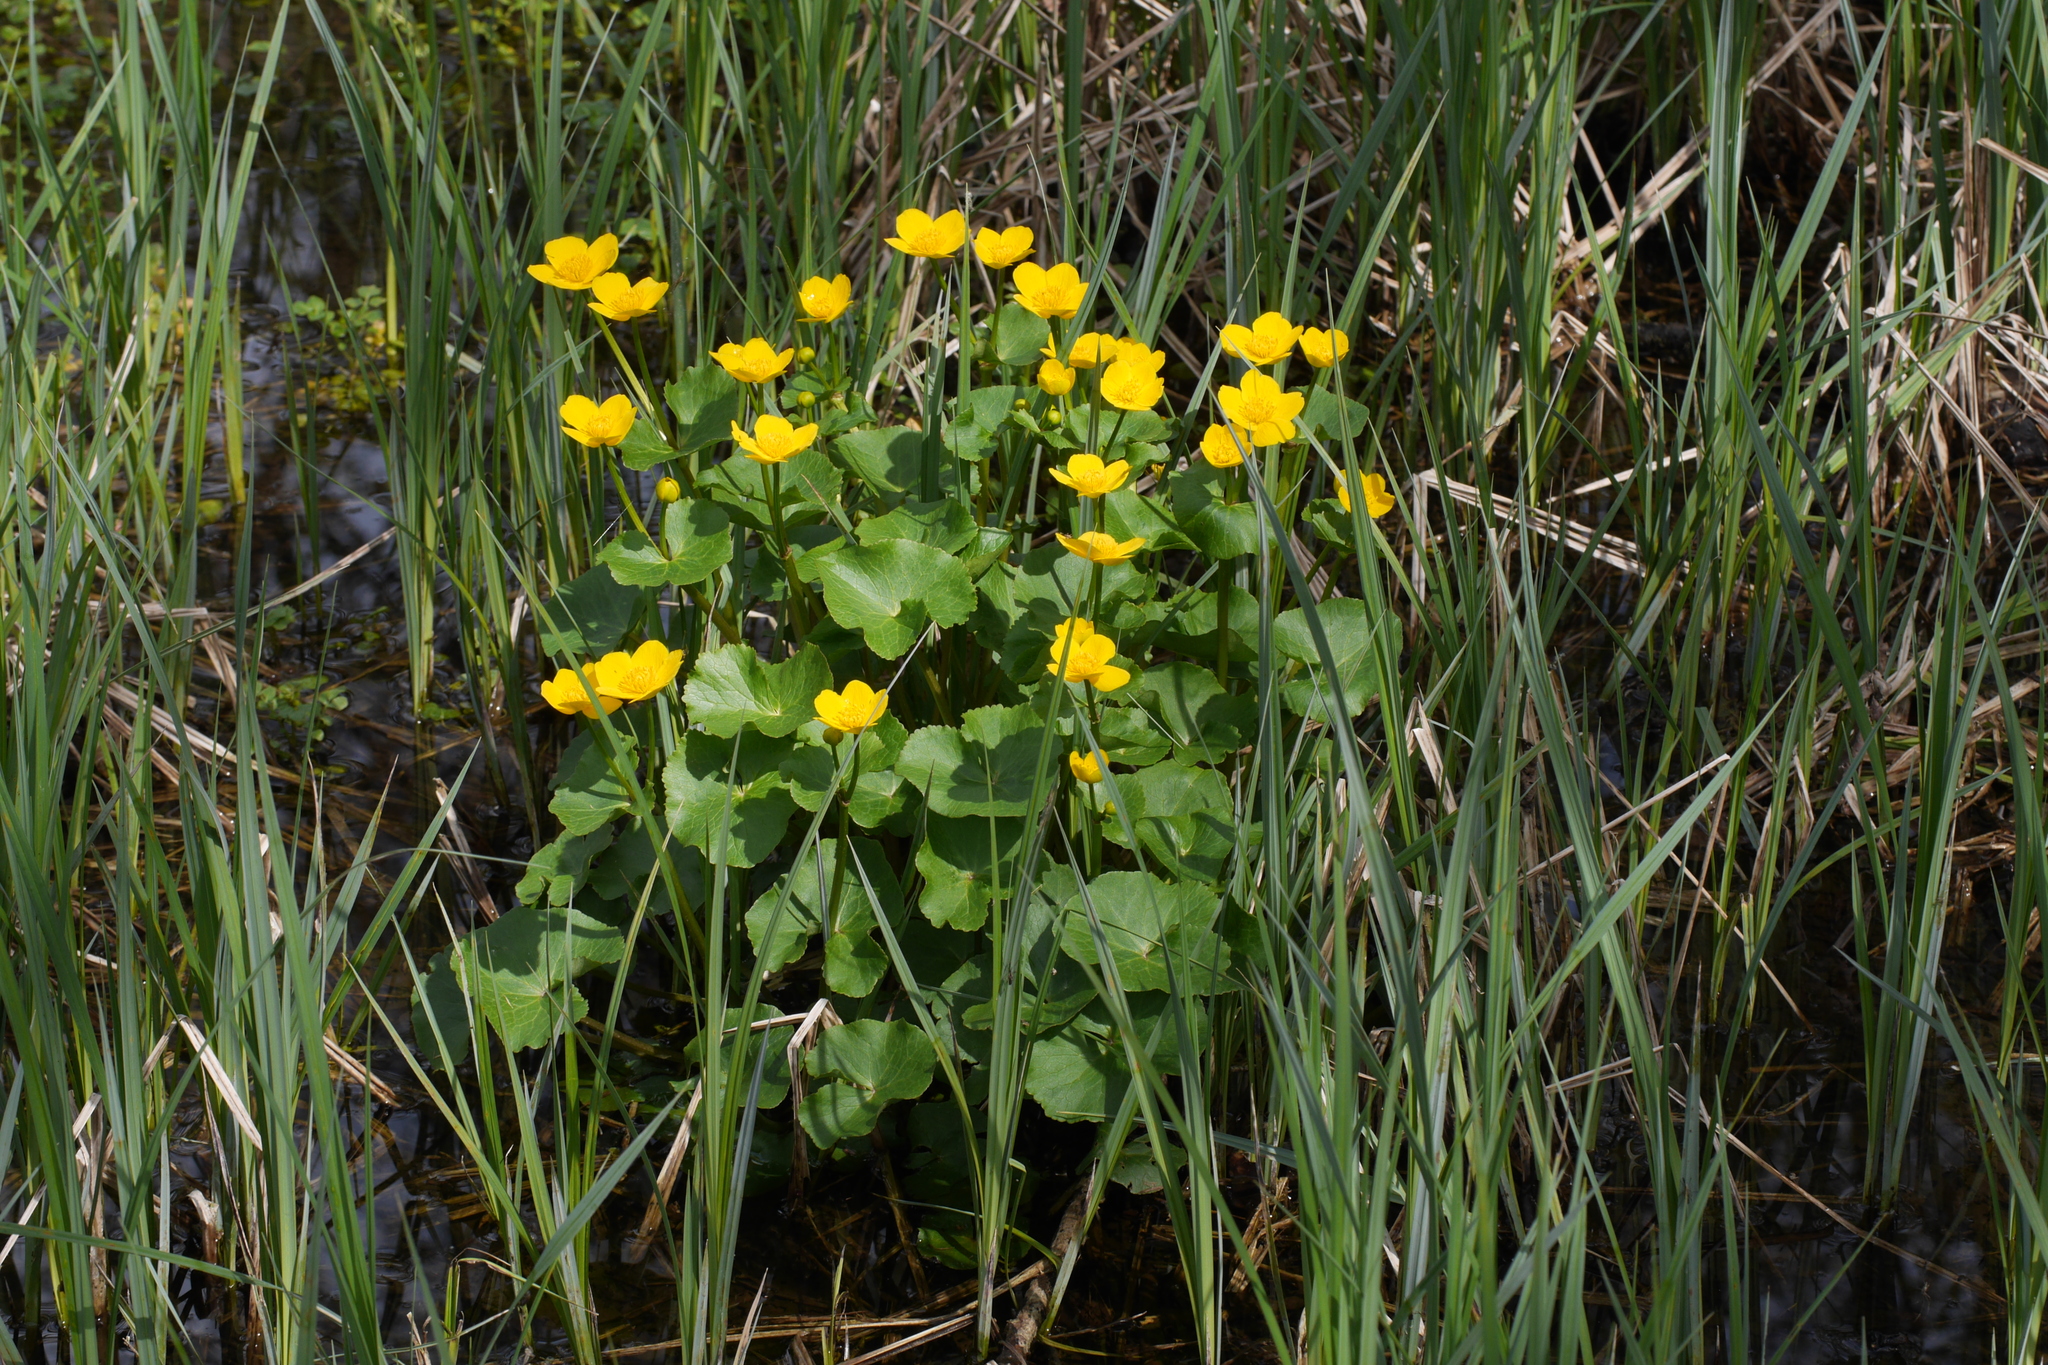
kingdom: Plantae
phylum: Tracheophyta
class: Magnoliopsida
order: Ranunculales
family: Ranunculaceae
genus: Caltha
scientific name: Caltha palustris
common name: Marsh marigold
